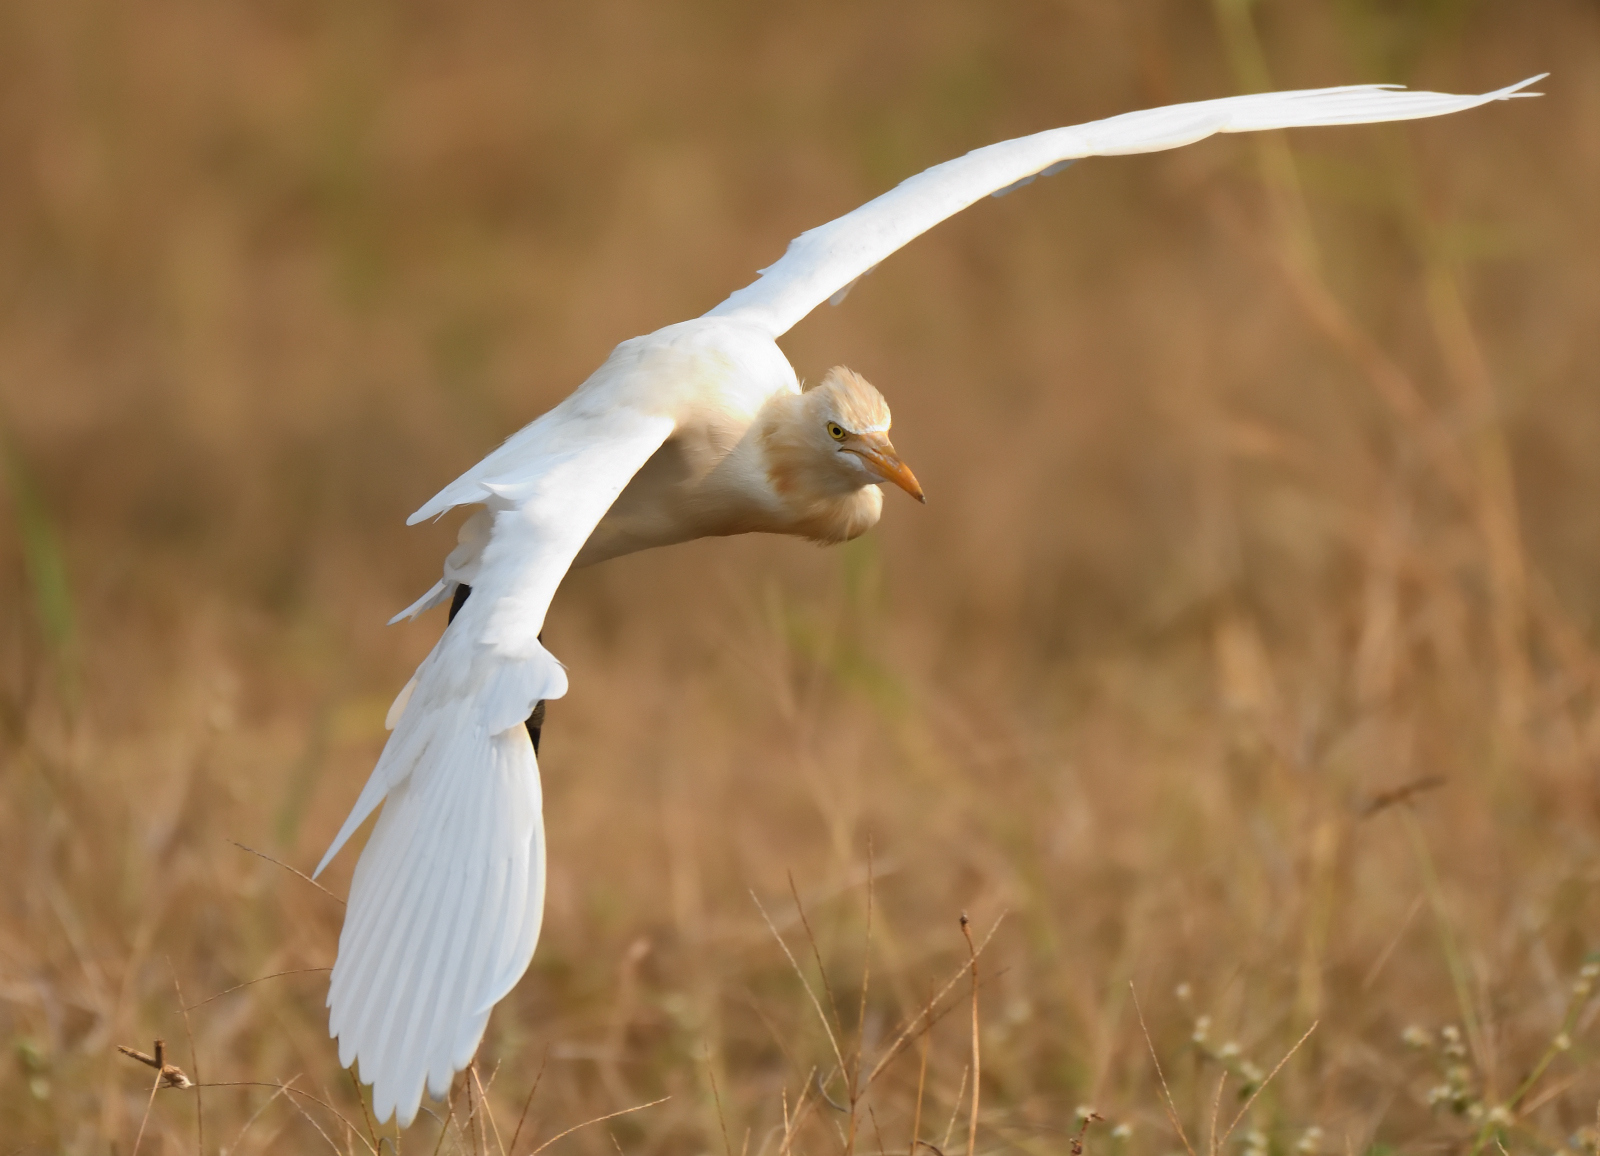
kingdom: Animalia
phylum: Chordata
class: Aves
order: Pelecaniformes
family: Ardeidae
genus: Bubulcus
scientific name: Bubulcus coromandus
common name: Eastern cattle egret
